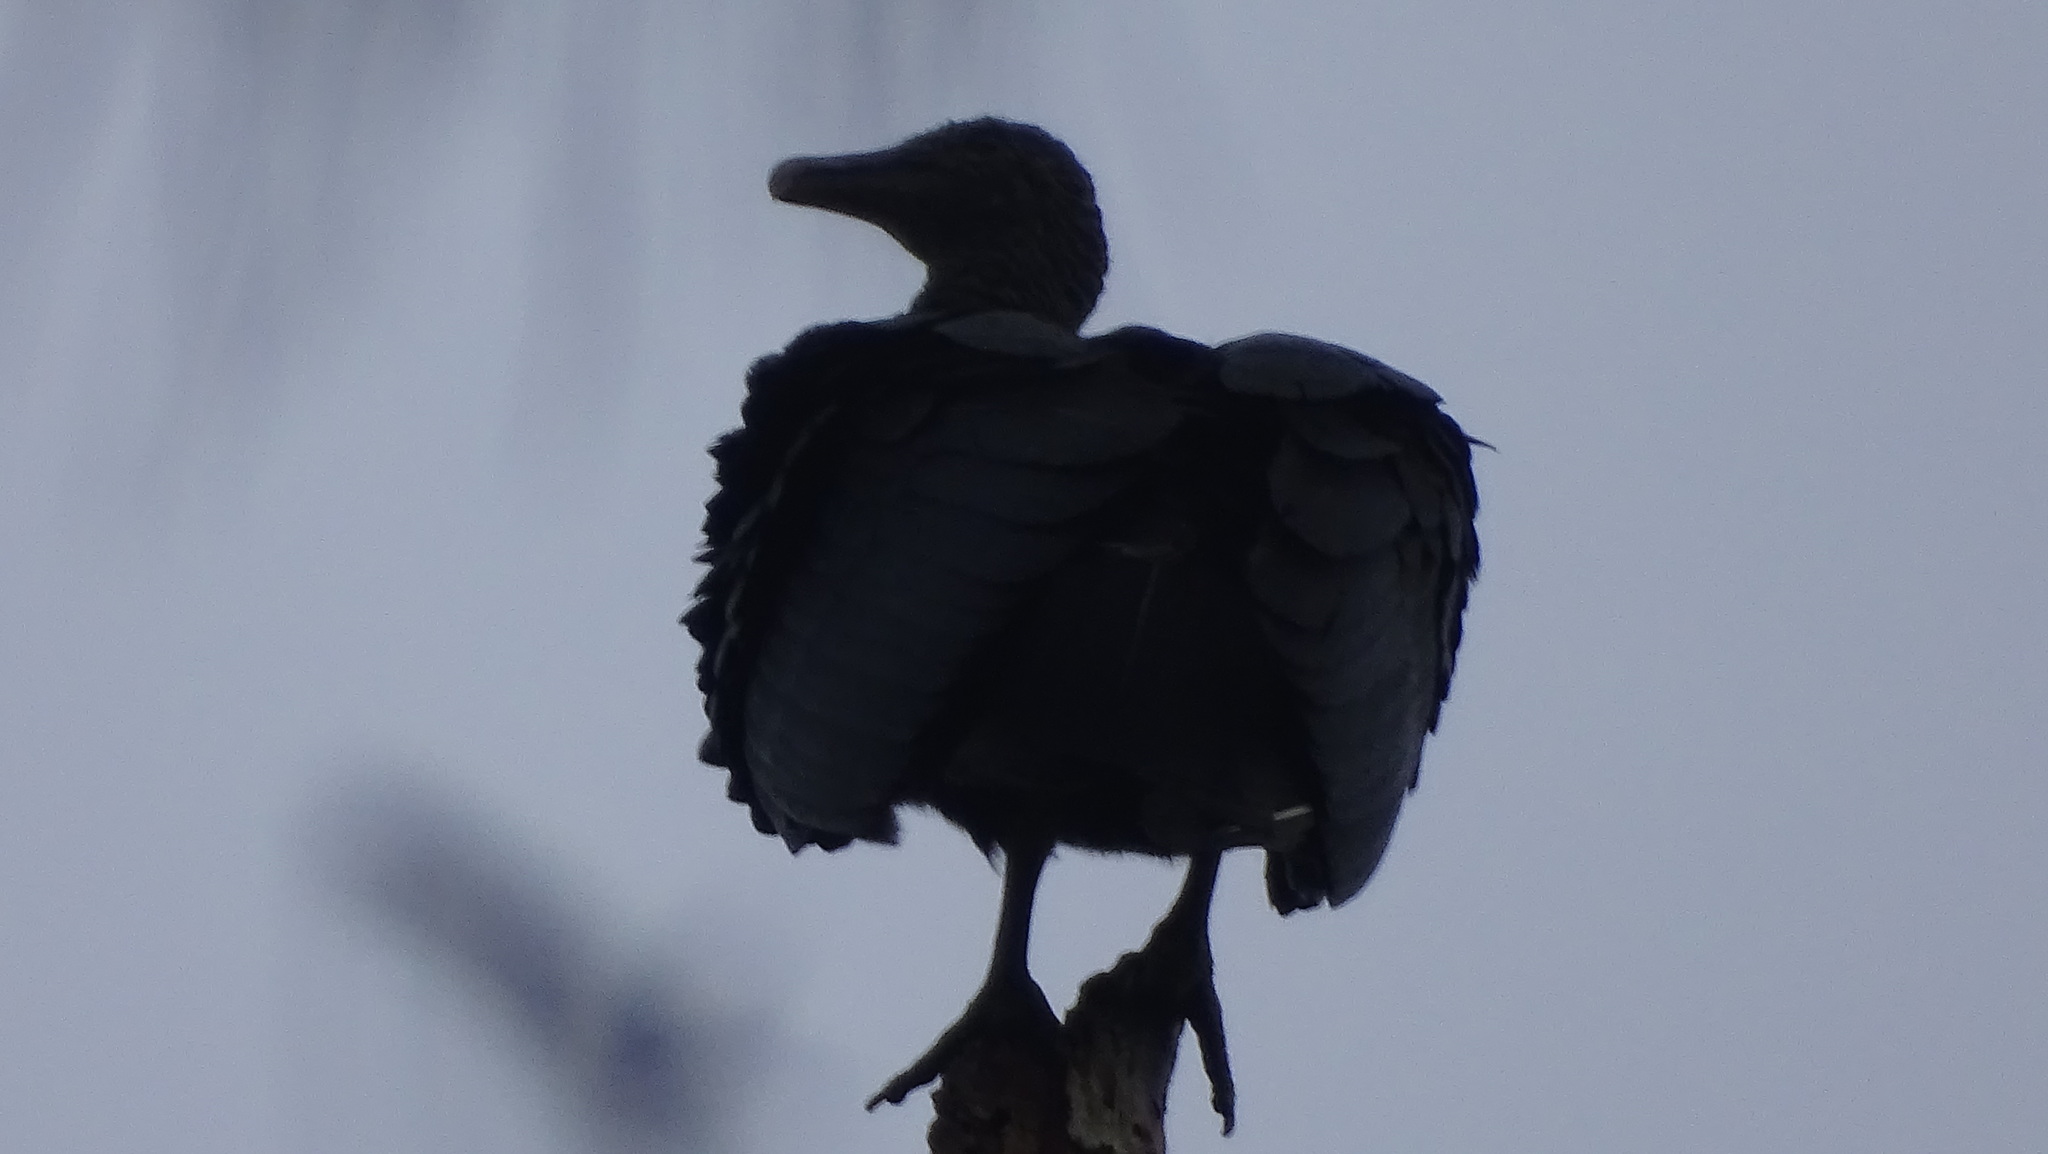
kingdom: Animalia
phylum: Chordata
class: Aves
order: Accipitriformes
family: Cathartidae
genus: Coragyps
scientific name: Coragyps atratus
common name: Black vulture
